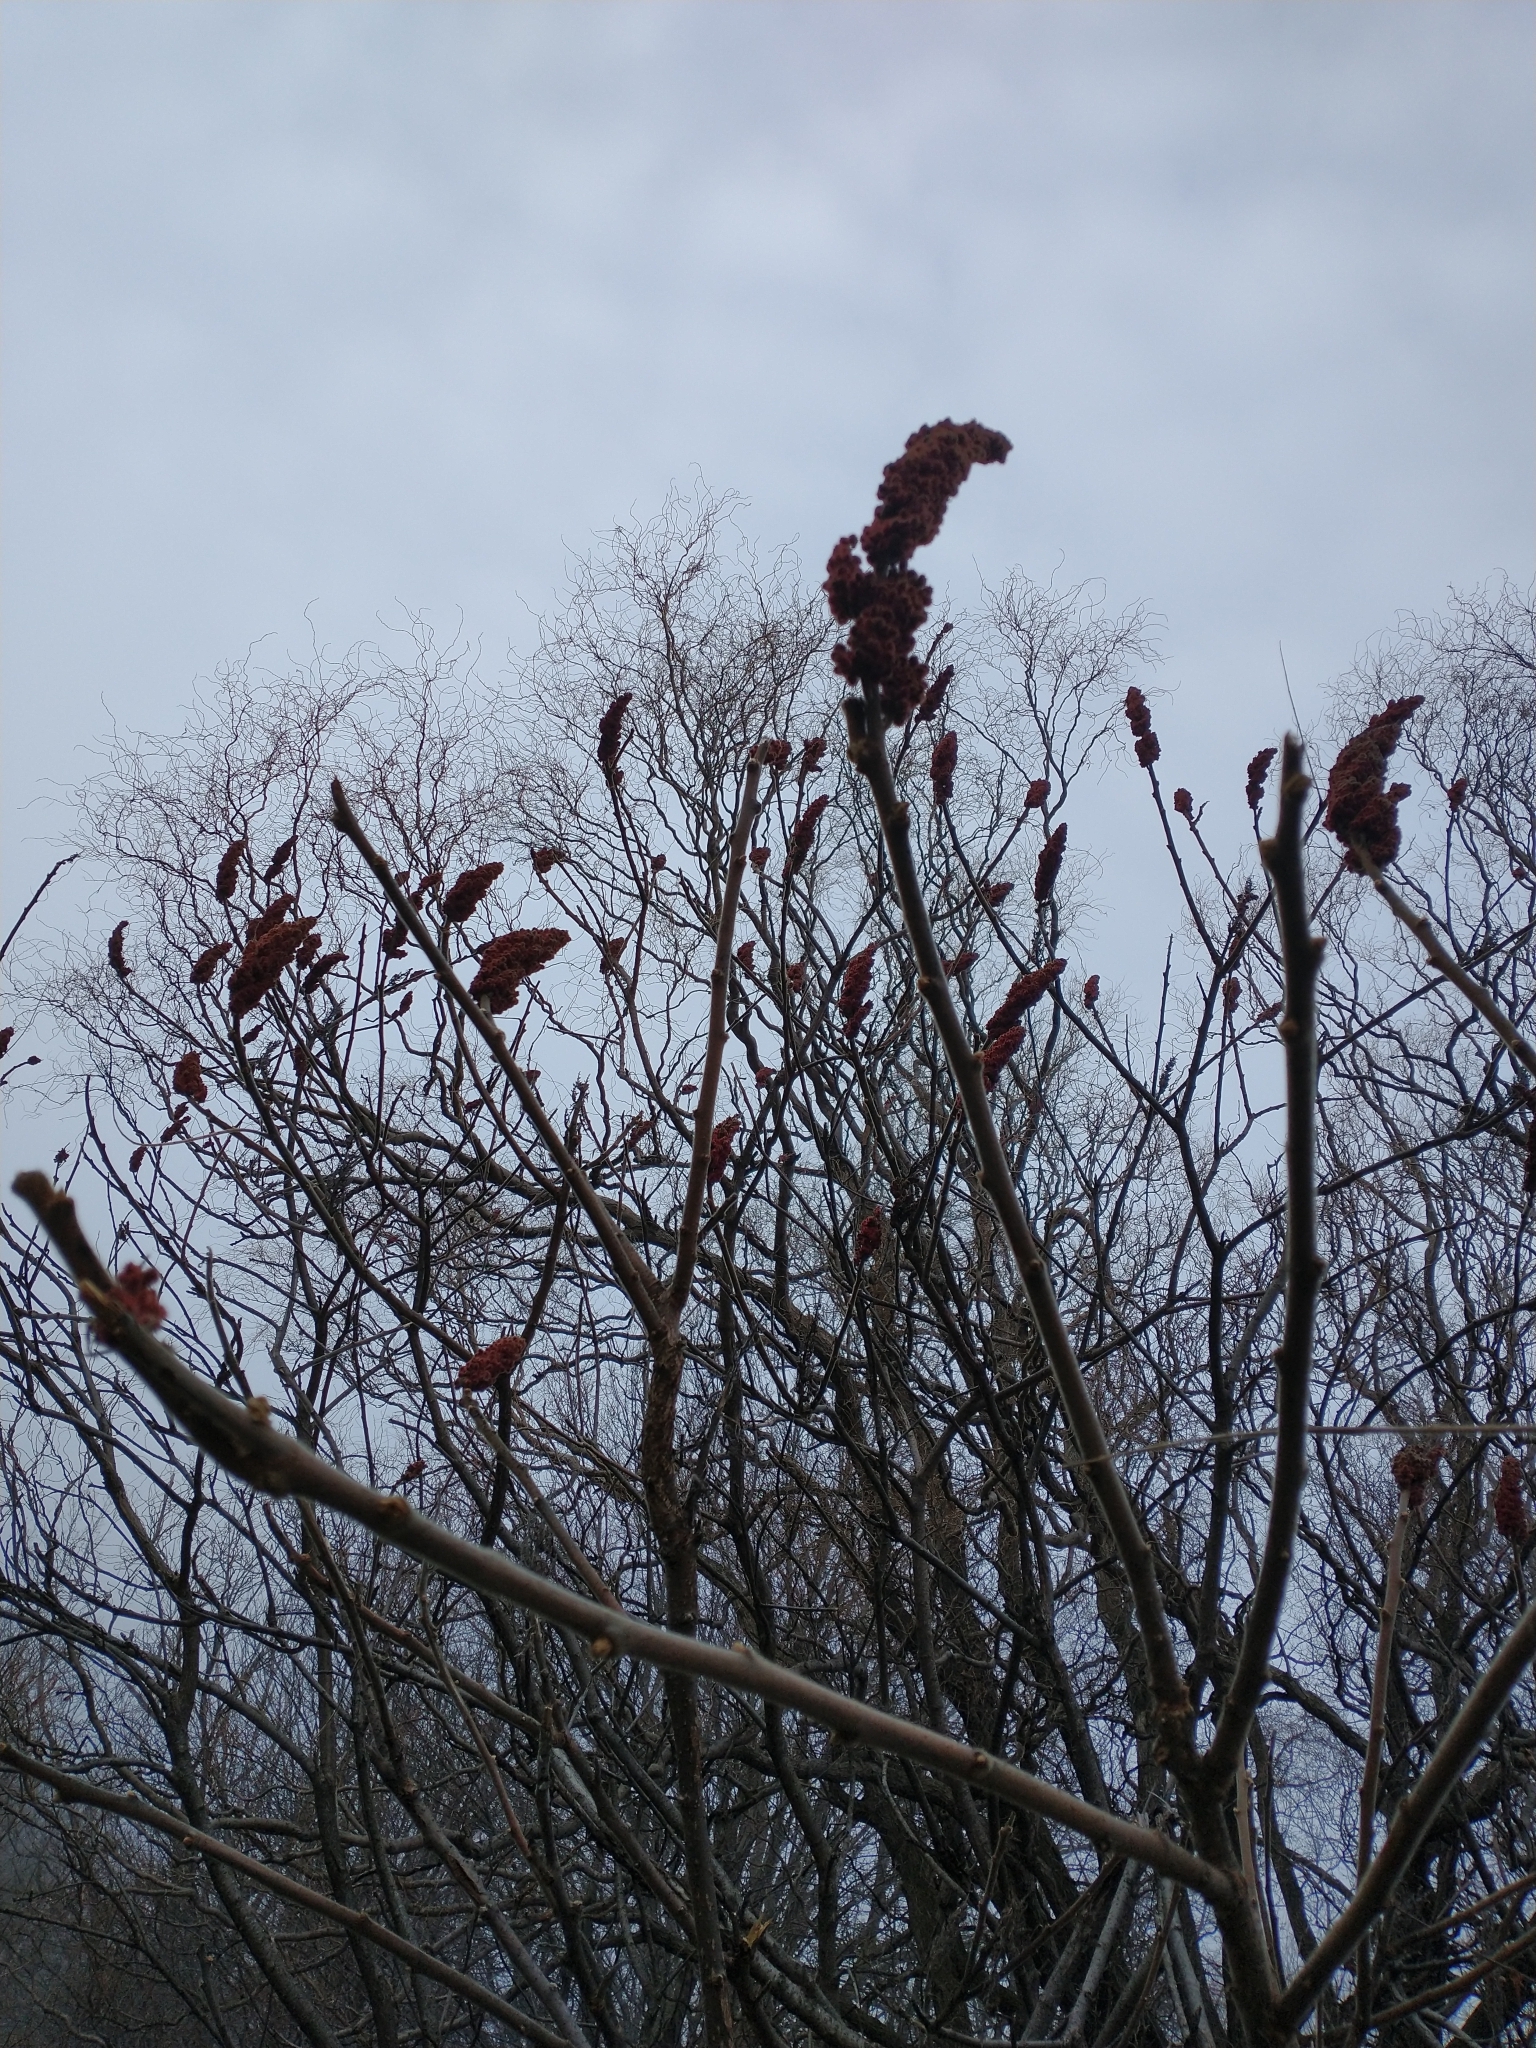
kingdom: Plantae
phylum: Tracheophyta
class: Magnoliopsida
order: Sapindales
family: Anacardiaceae
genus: Rhus
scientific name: Rhus typhina
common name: Staghorn sumac
